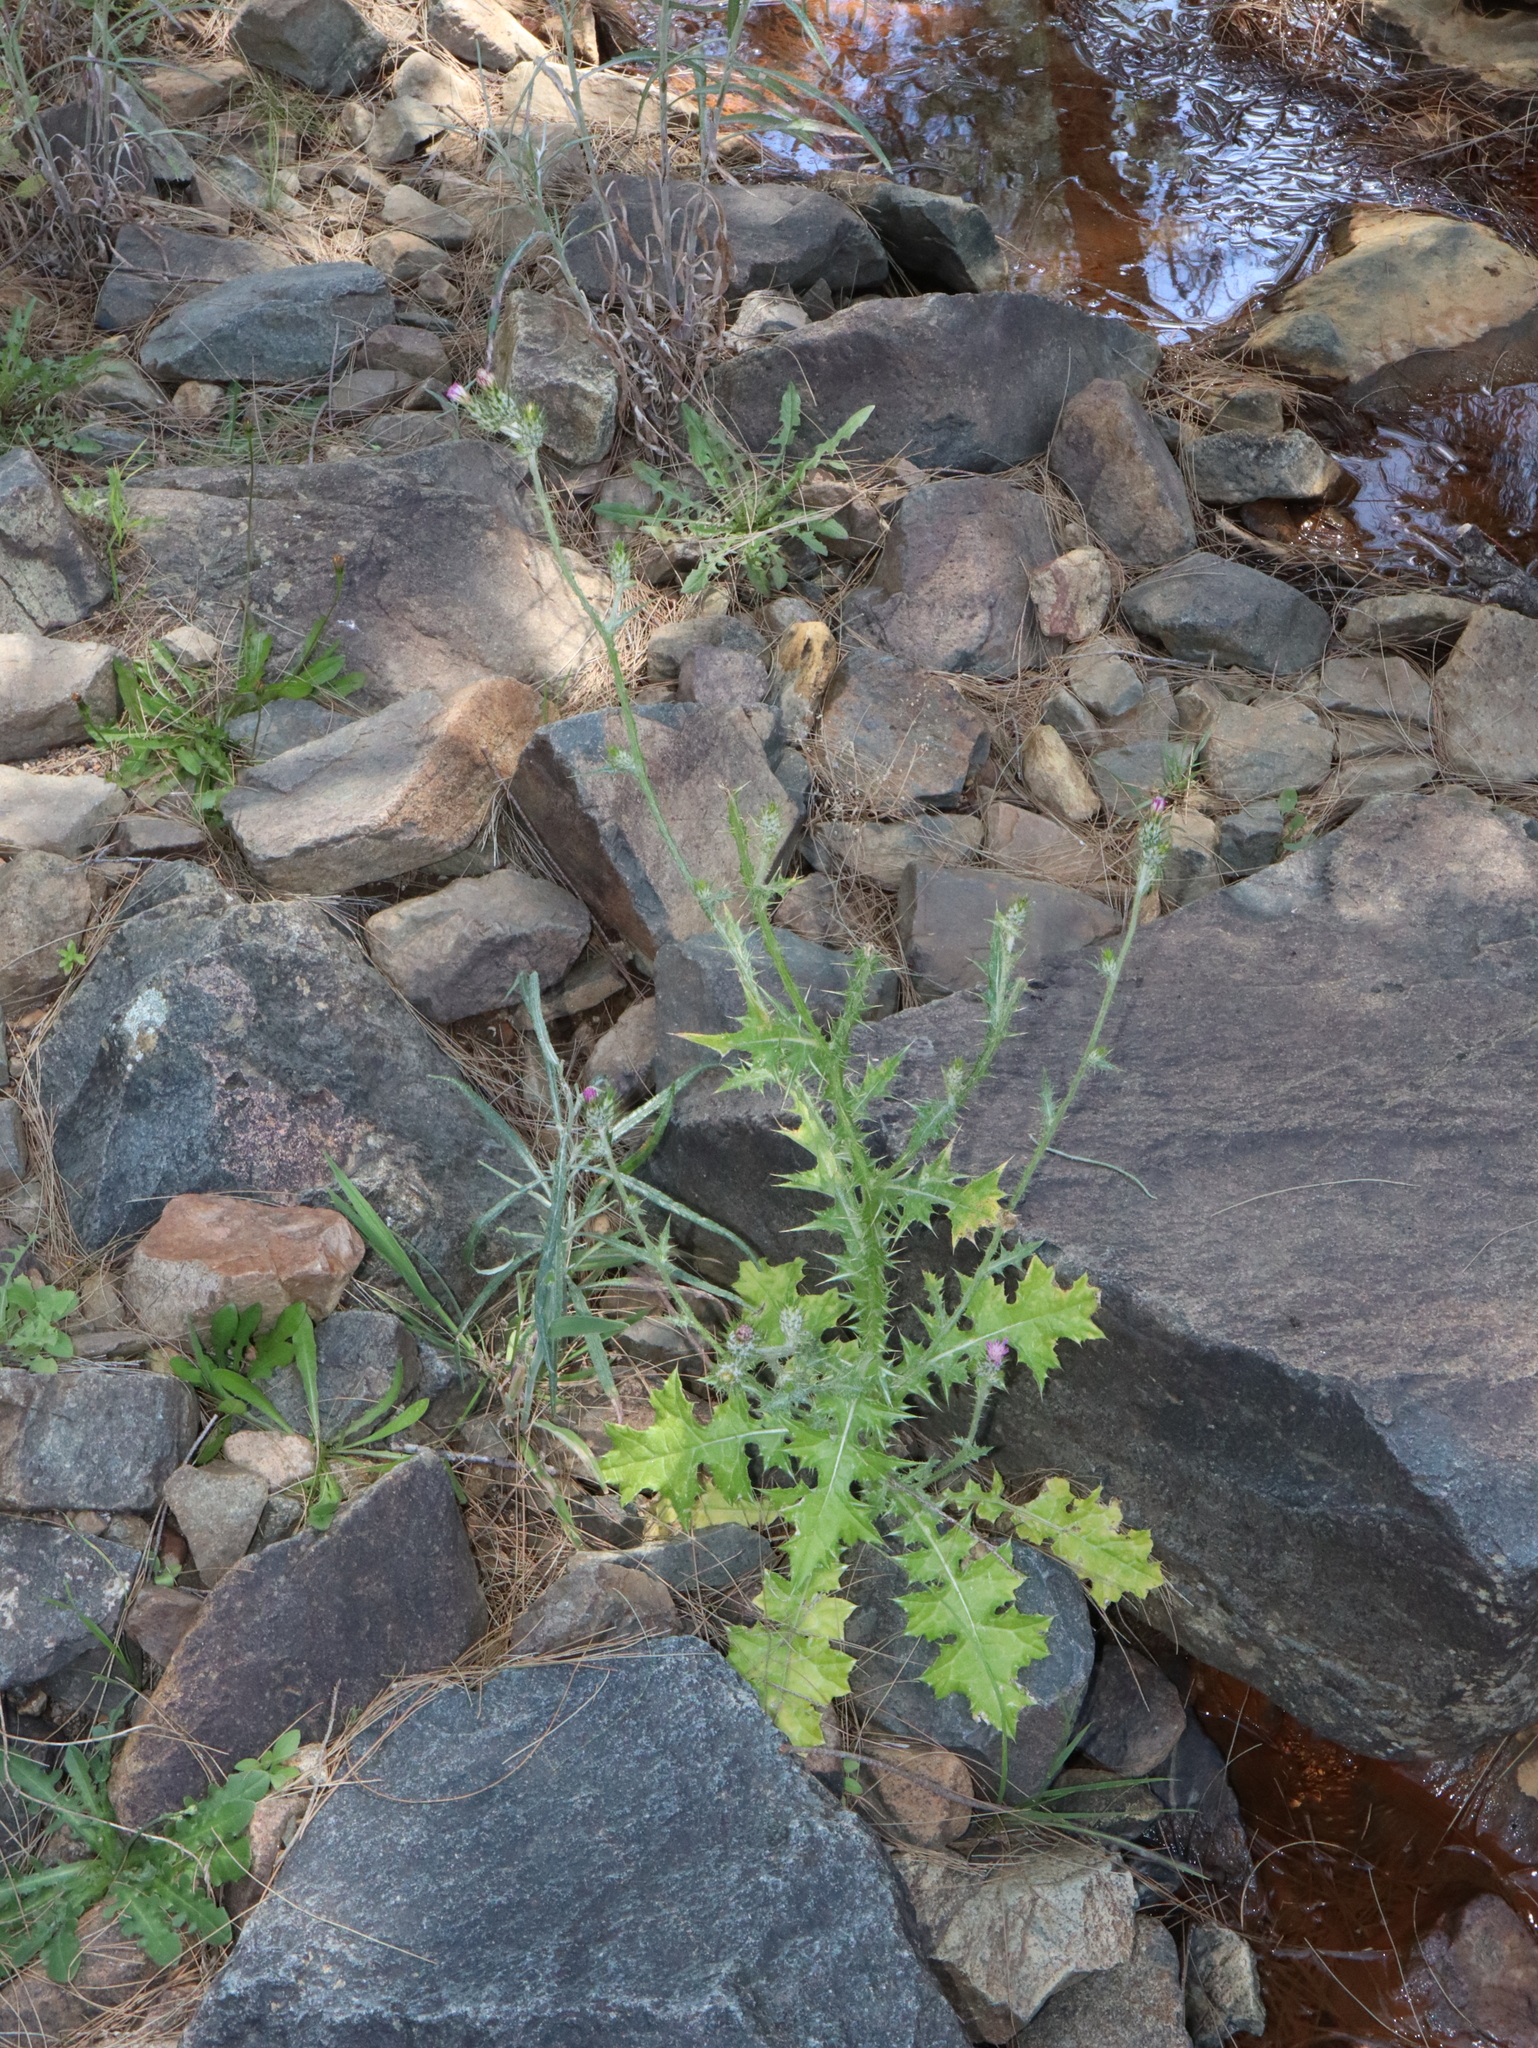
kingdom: Plantae
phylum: Tracheophyta
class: Magnoliopsida
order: Asterales
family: Asteraceae
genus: Carduus
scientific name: Carduus pycnocephalus
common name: Plymouth thistle
